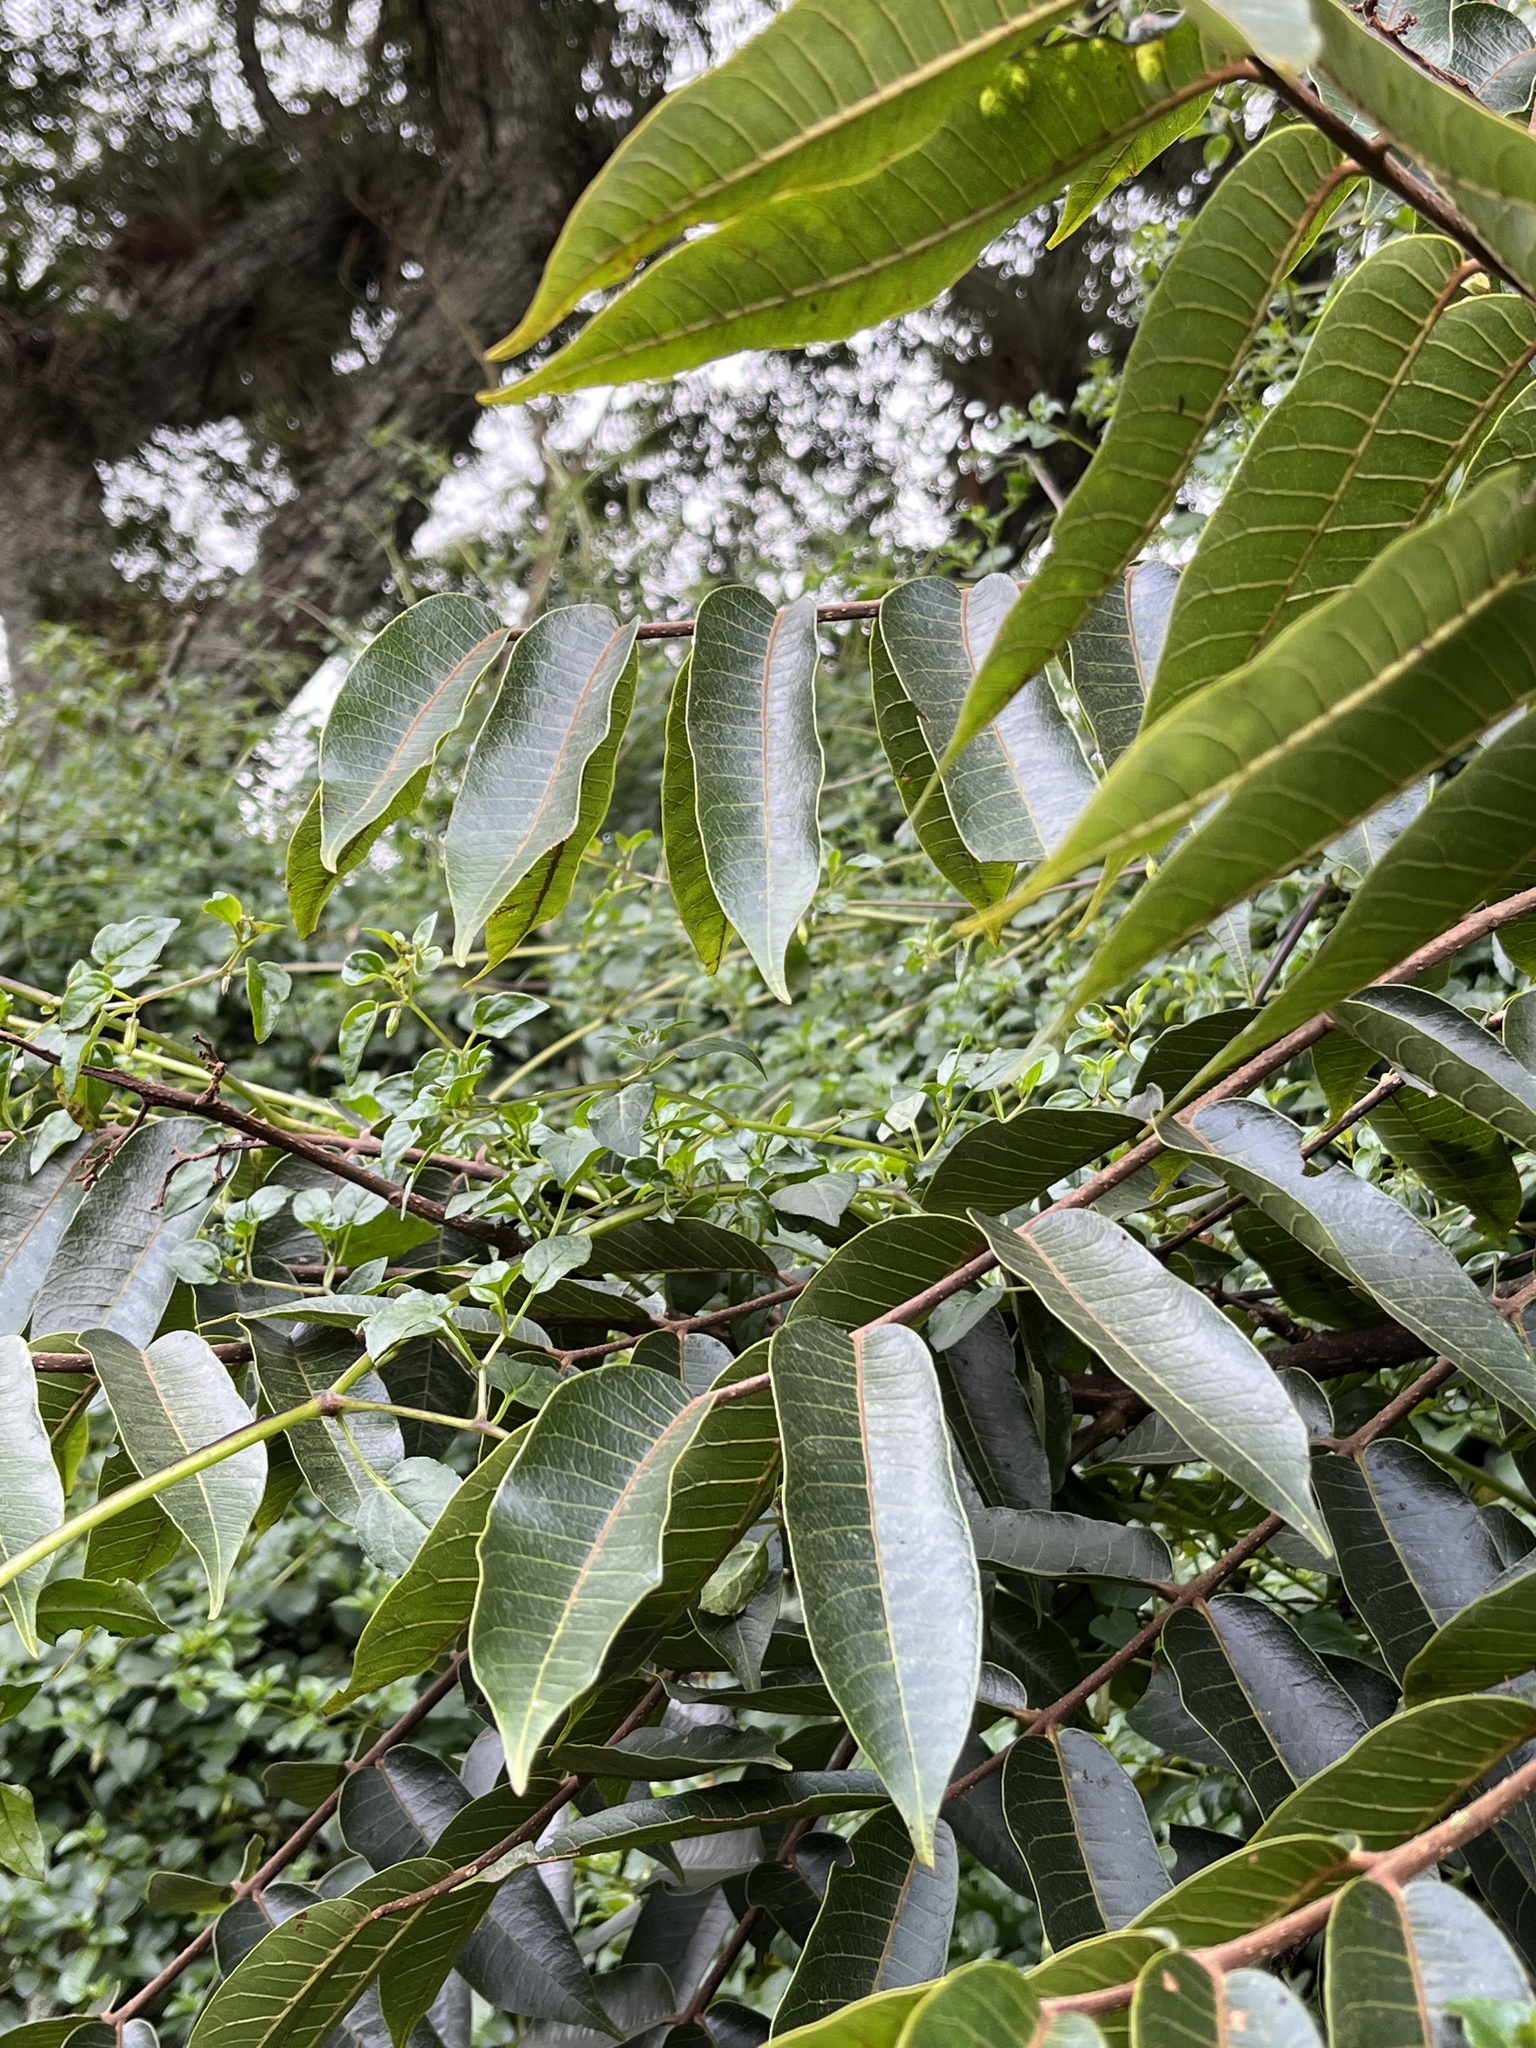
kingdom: Plantae
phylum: Tracheophyta
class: Magnoliopsida
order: Sapindales
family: Meliaceae
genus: Cedrela
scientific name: Cedrela montana
